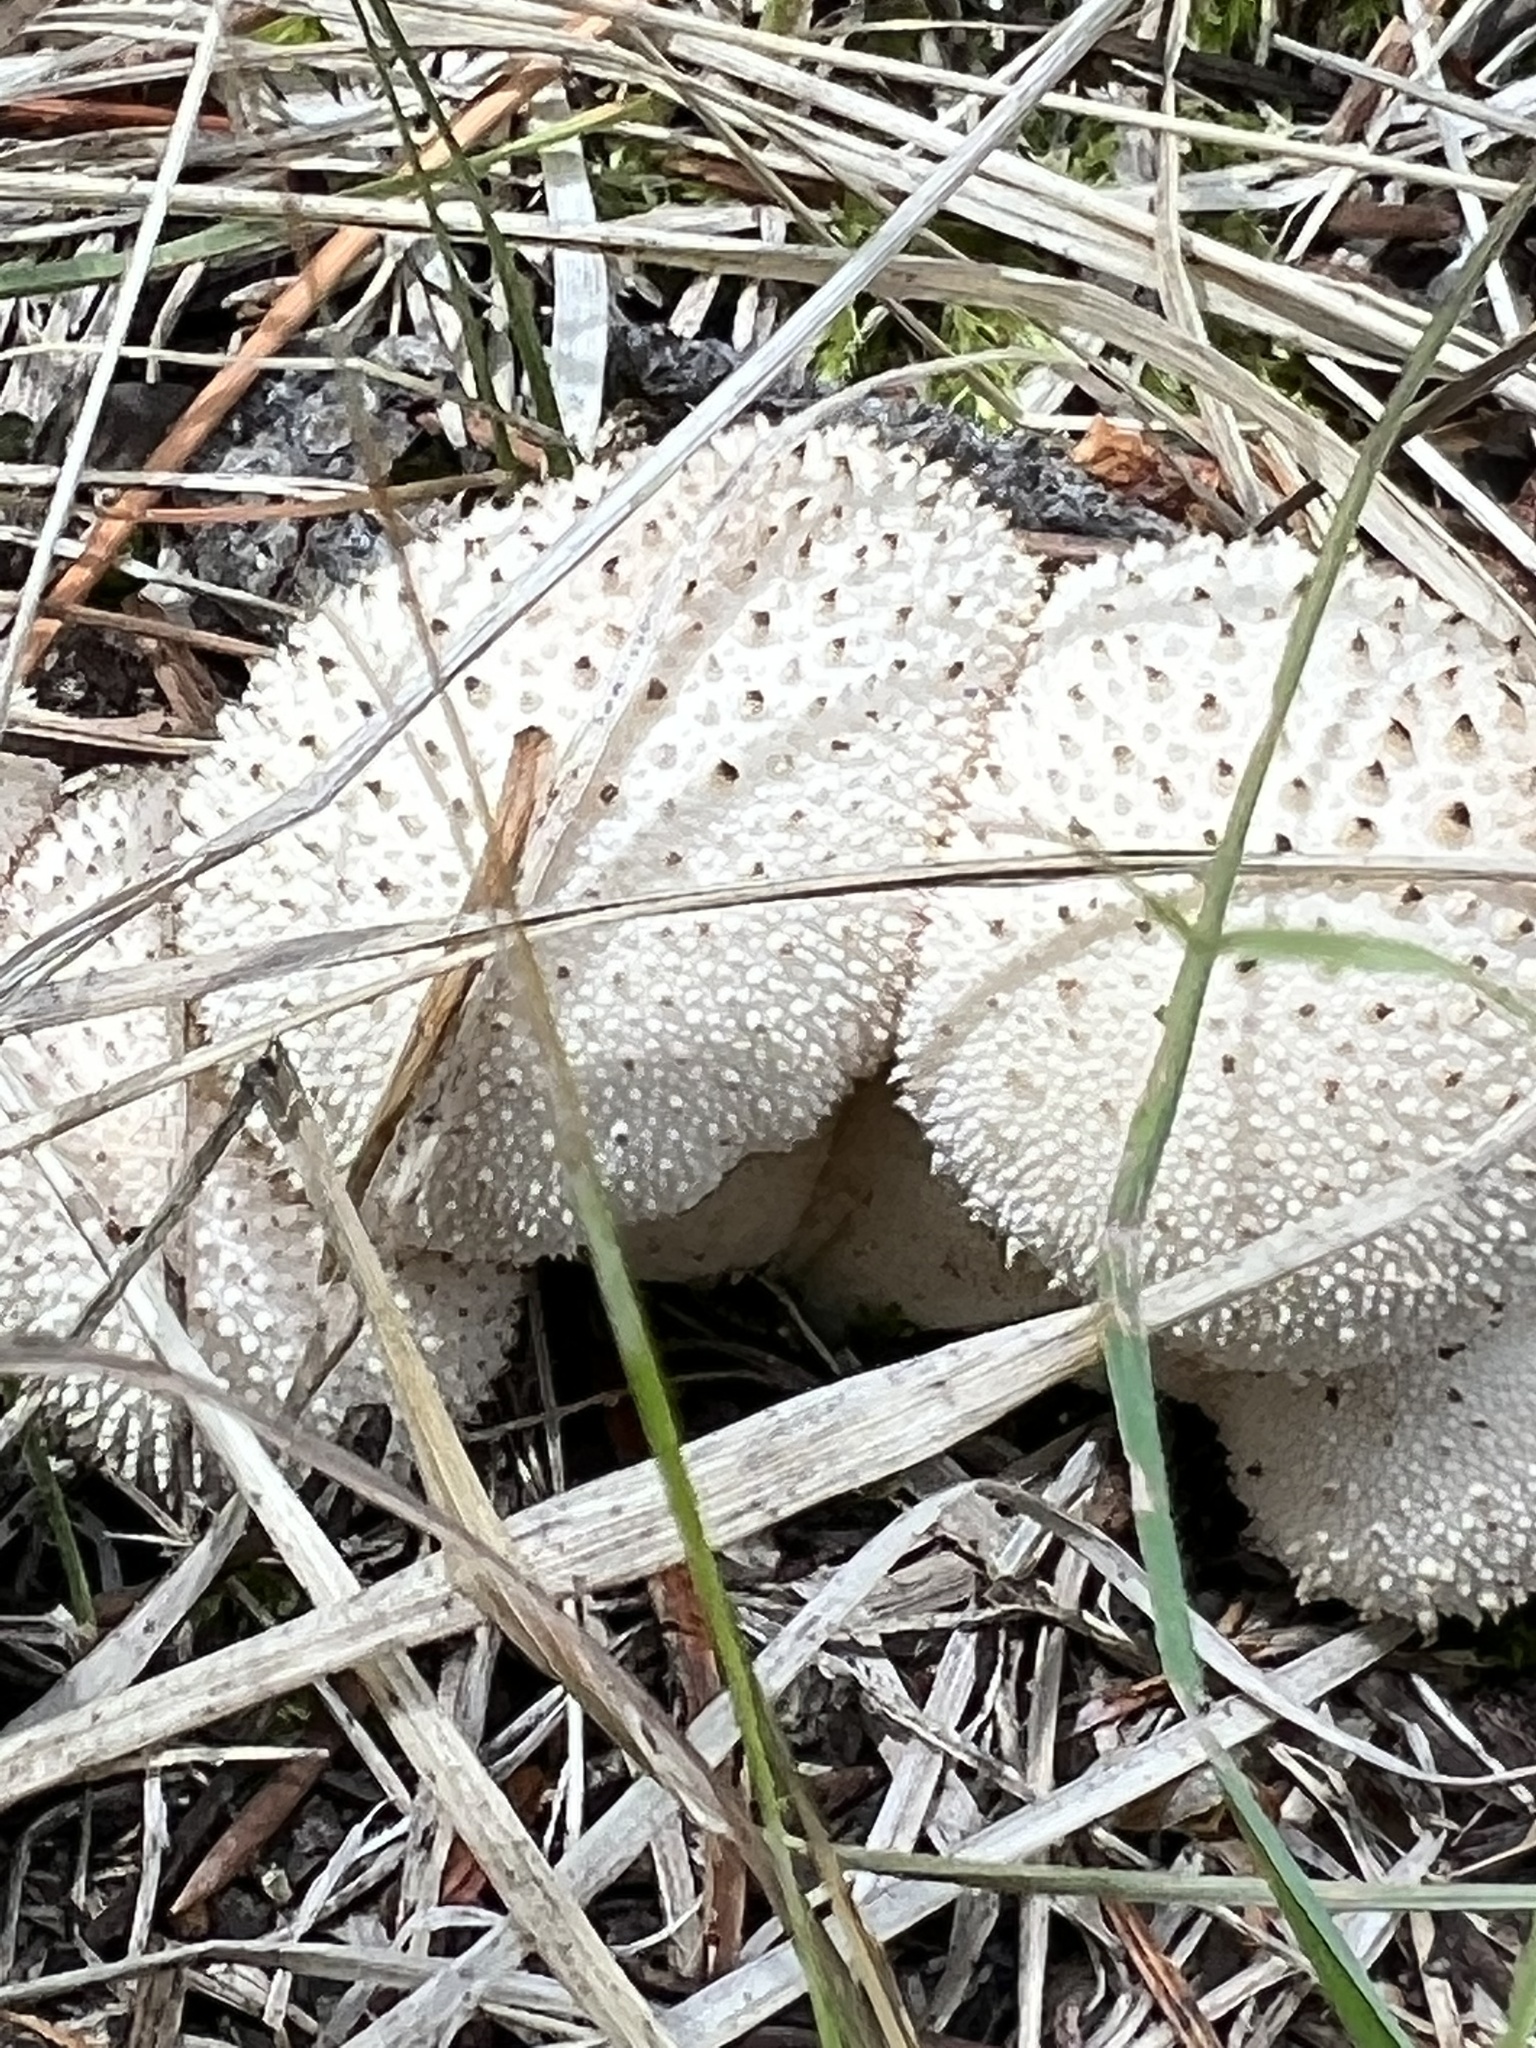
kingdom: Fungi
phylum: Basidiomycota
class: Agaricomycetes
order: Agaricales
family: Lycoperdaceae
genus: Lycoperdon
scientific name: Lycoperdon perlatum
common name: Common puffball
